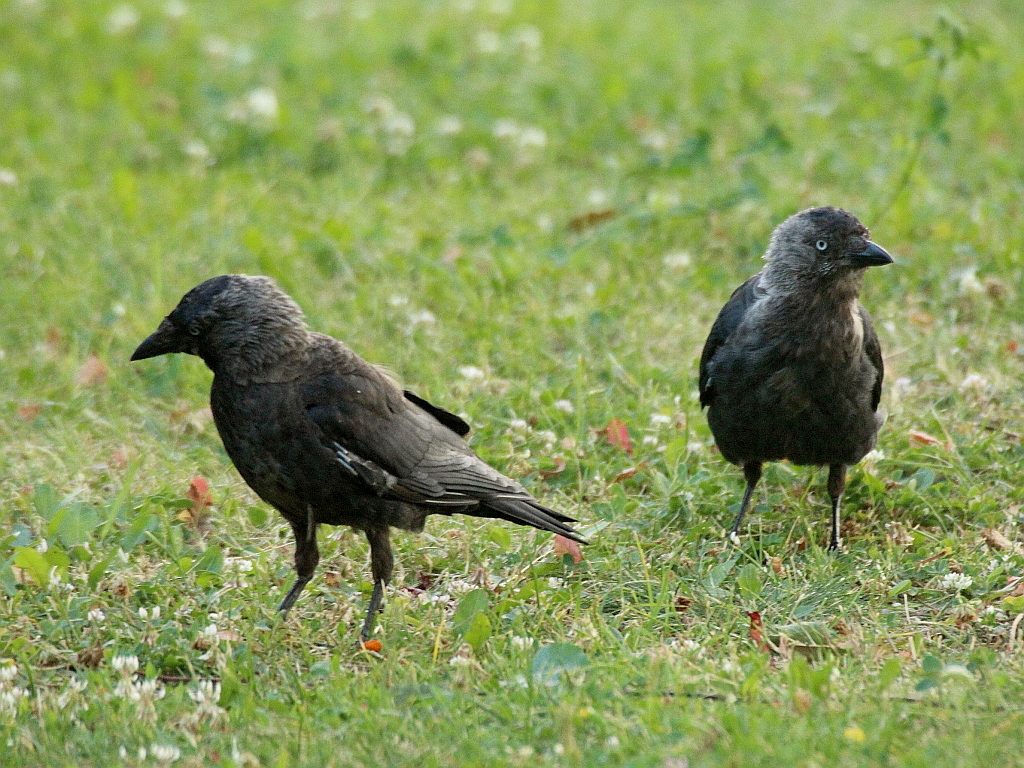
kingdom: Animalia
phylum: Chordata
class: Aves
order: Passeriformes
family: Corvidae
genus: Coloeus
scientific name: Coloeus monedula
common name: Western jackdaw
